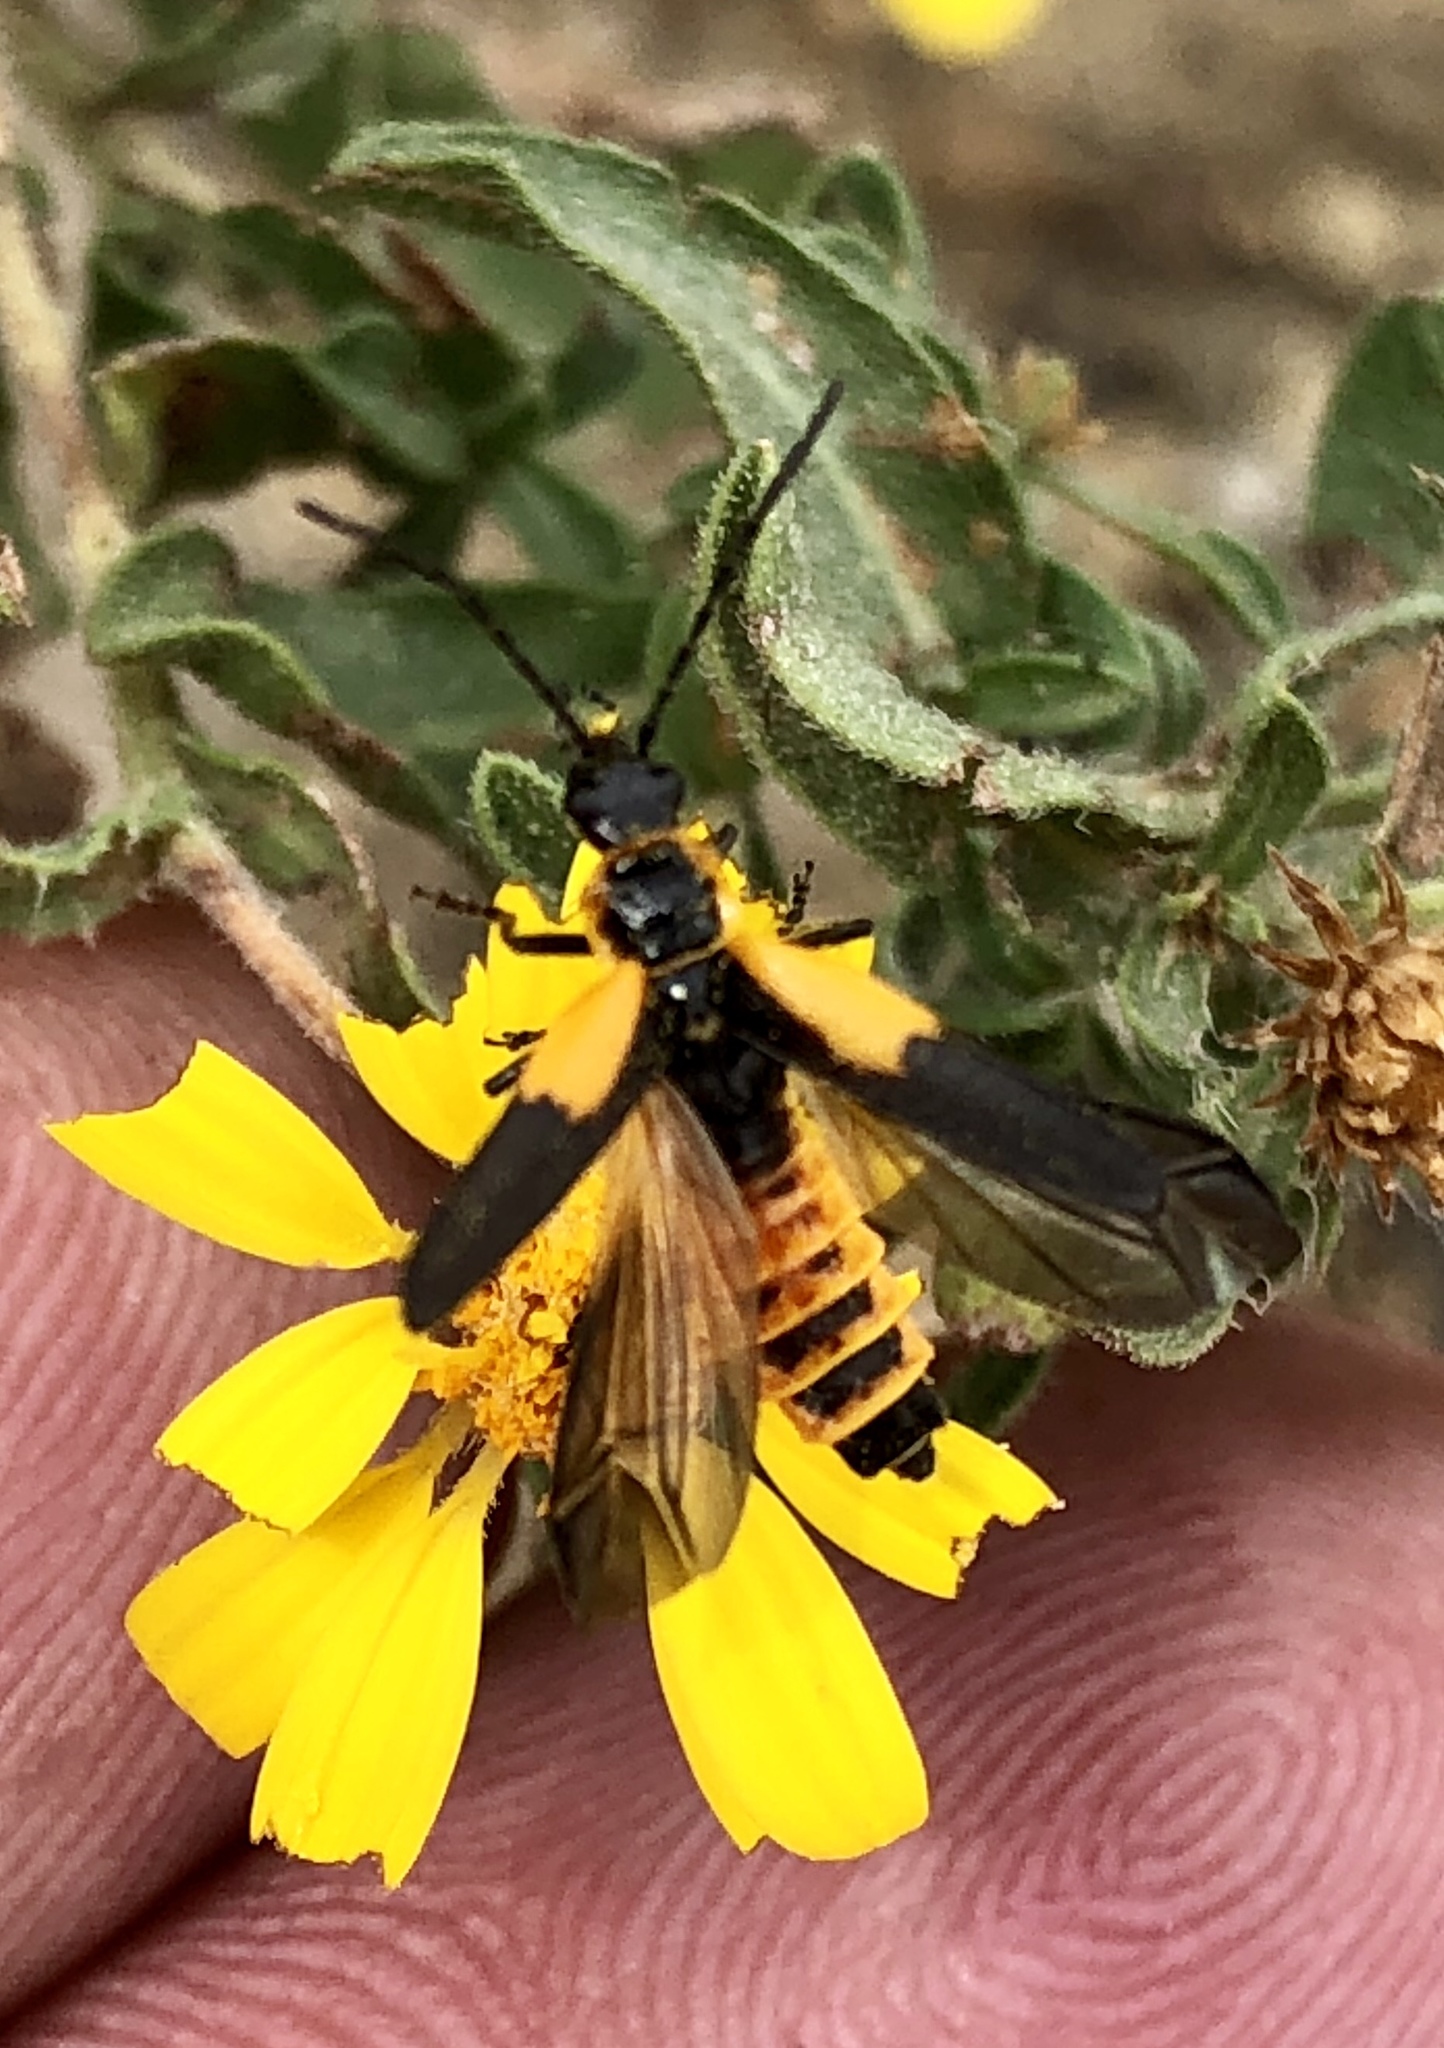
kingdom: Animalia
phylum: Arthropoda
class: Insecta
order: Coleoptera
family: Cantharidae
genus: Chauliognathus
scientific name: Chauliognathus deceptus
